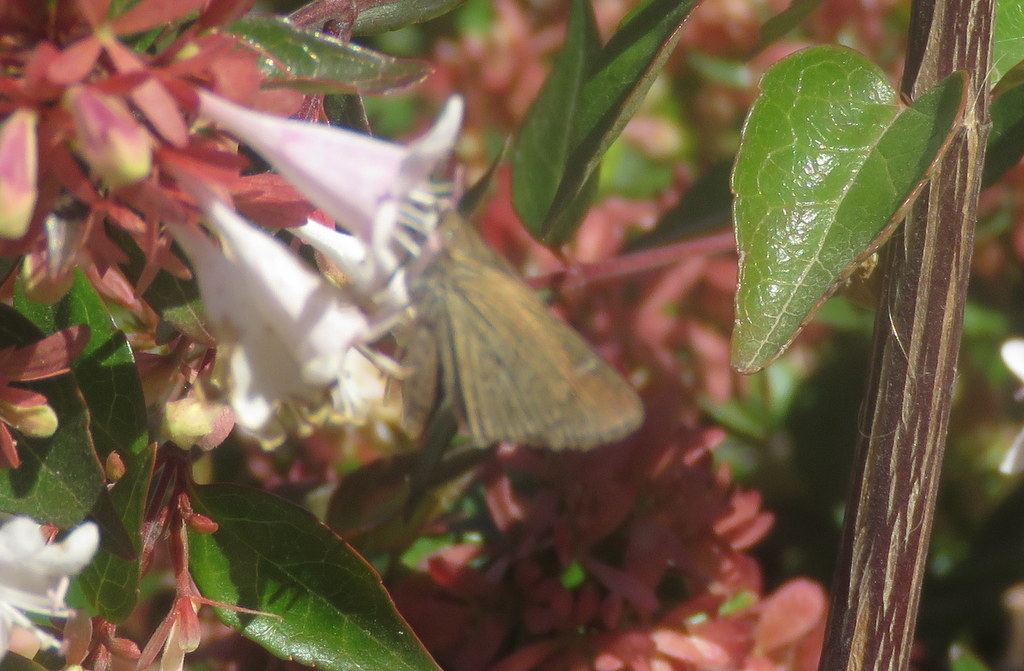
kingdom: Animalia
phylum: Arthropoda
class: Insecta
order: Lepidoptera
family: Hesperiidae
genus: Lerodea
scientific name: Lerodea eufala
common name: Eufala skipper
